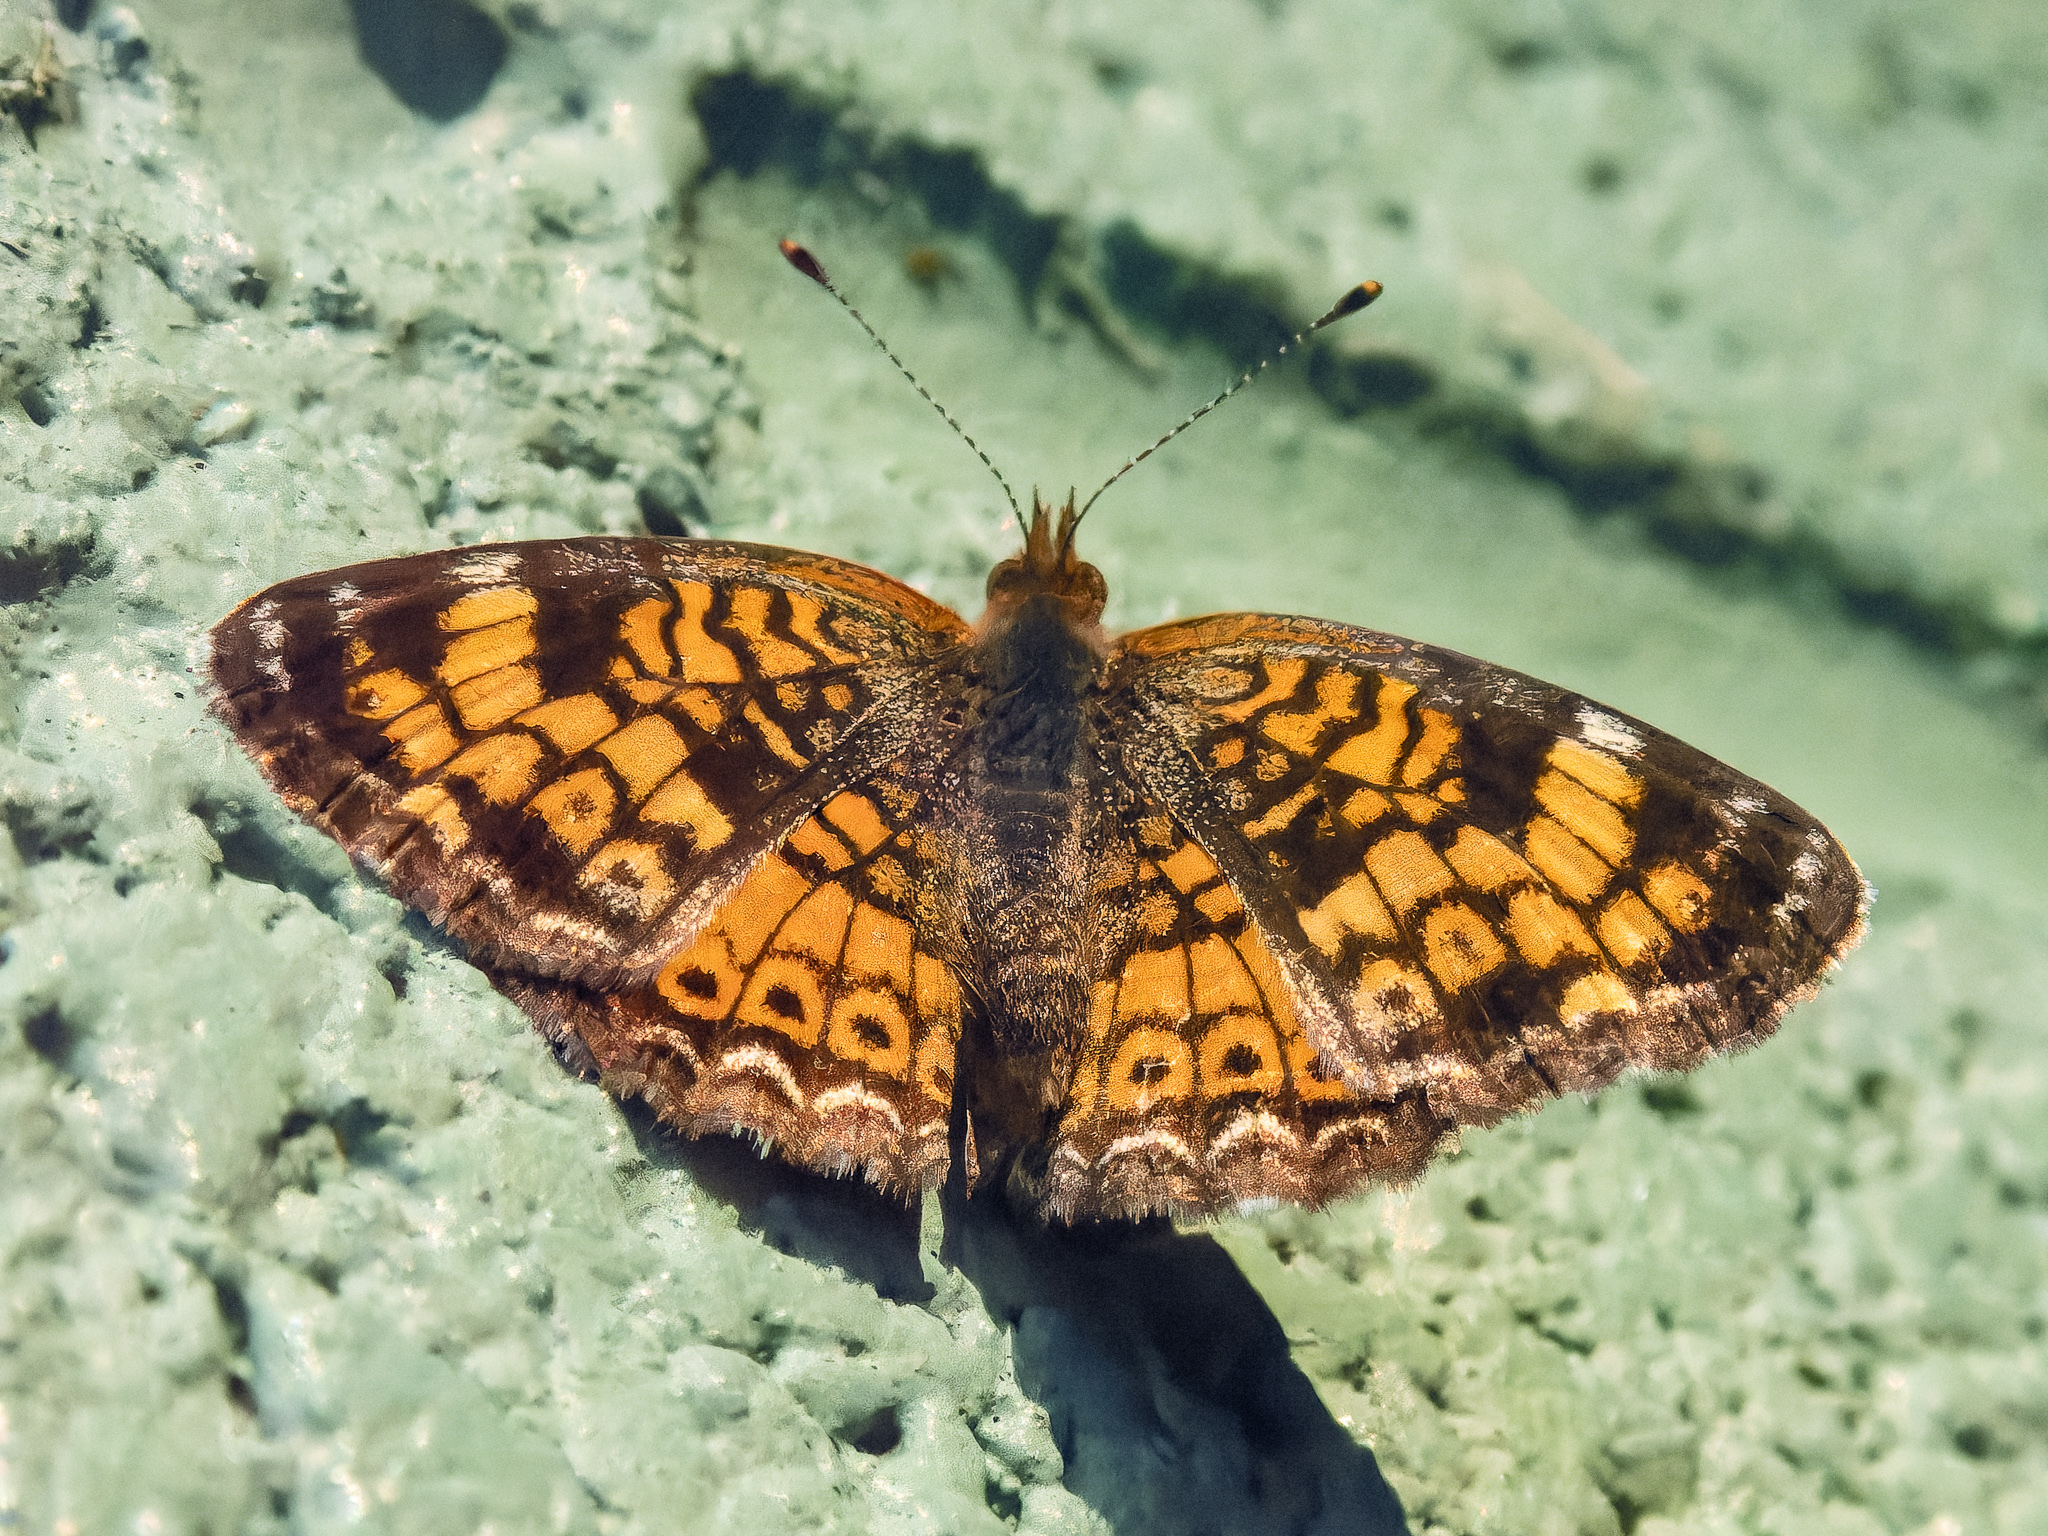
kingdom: Animalia
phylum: Arthropoda
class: Insecta
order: Lepidoptera
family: Nymphalidae
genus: Phyciodes
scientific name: Phyciodes tharos
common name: Pearl crescent
